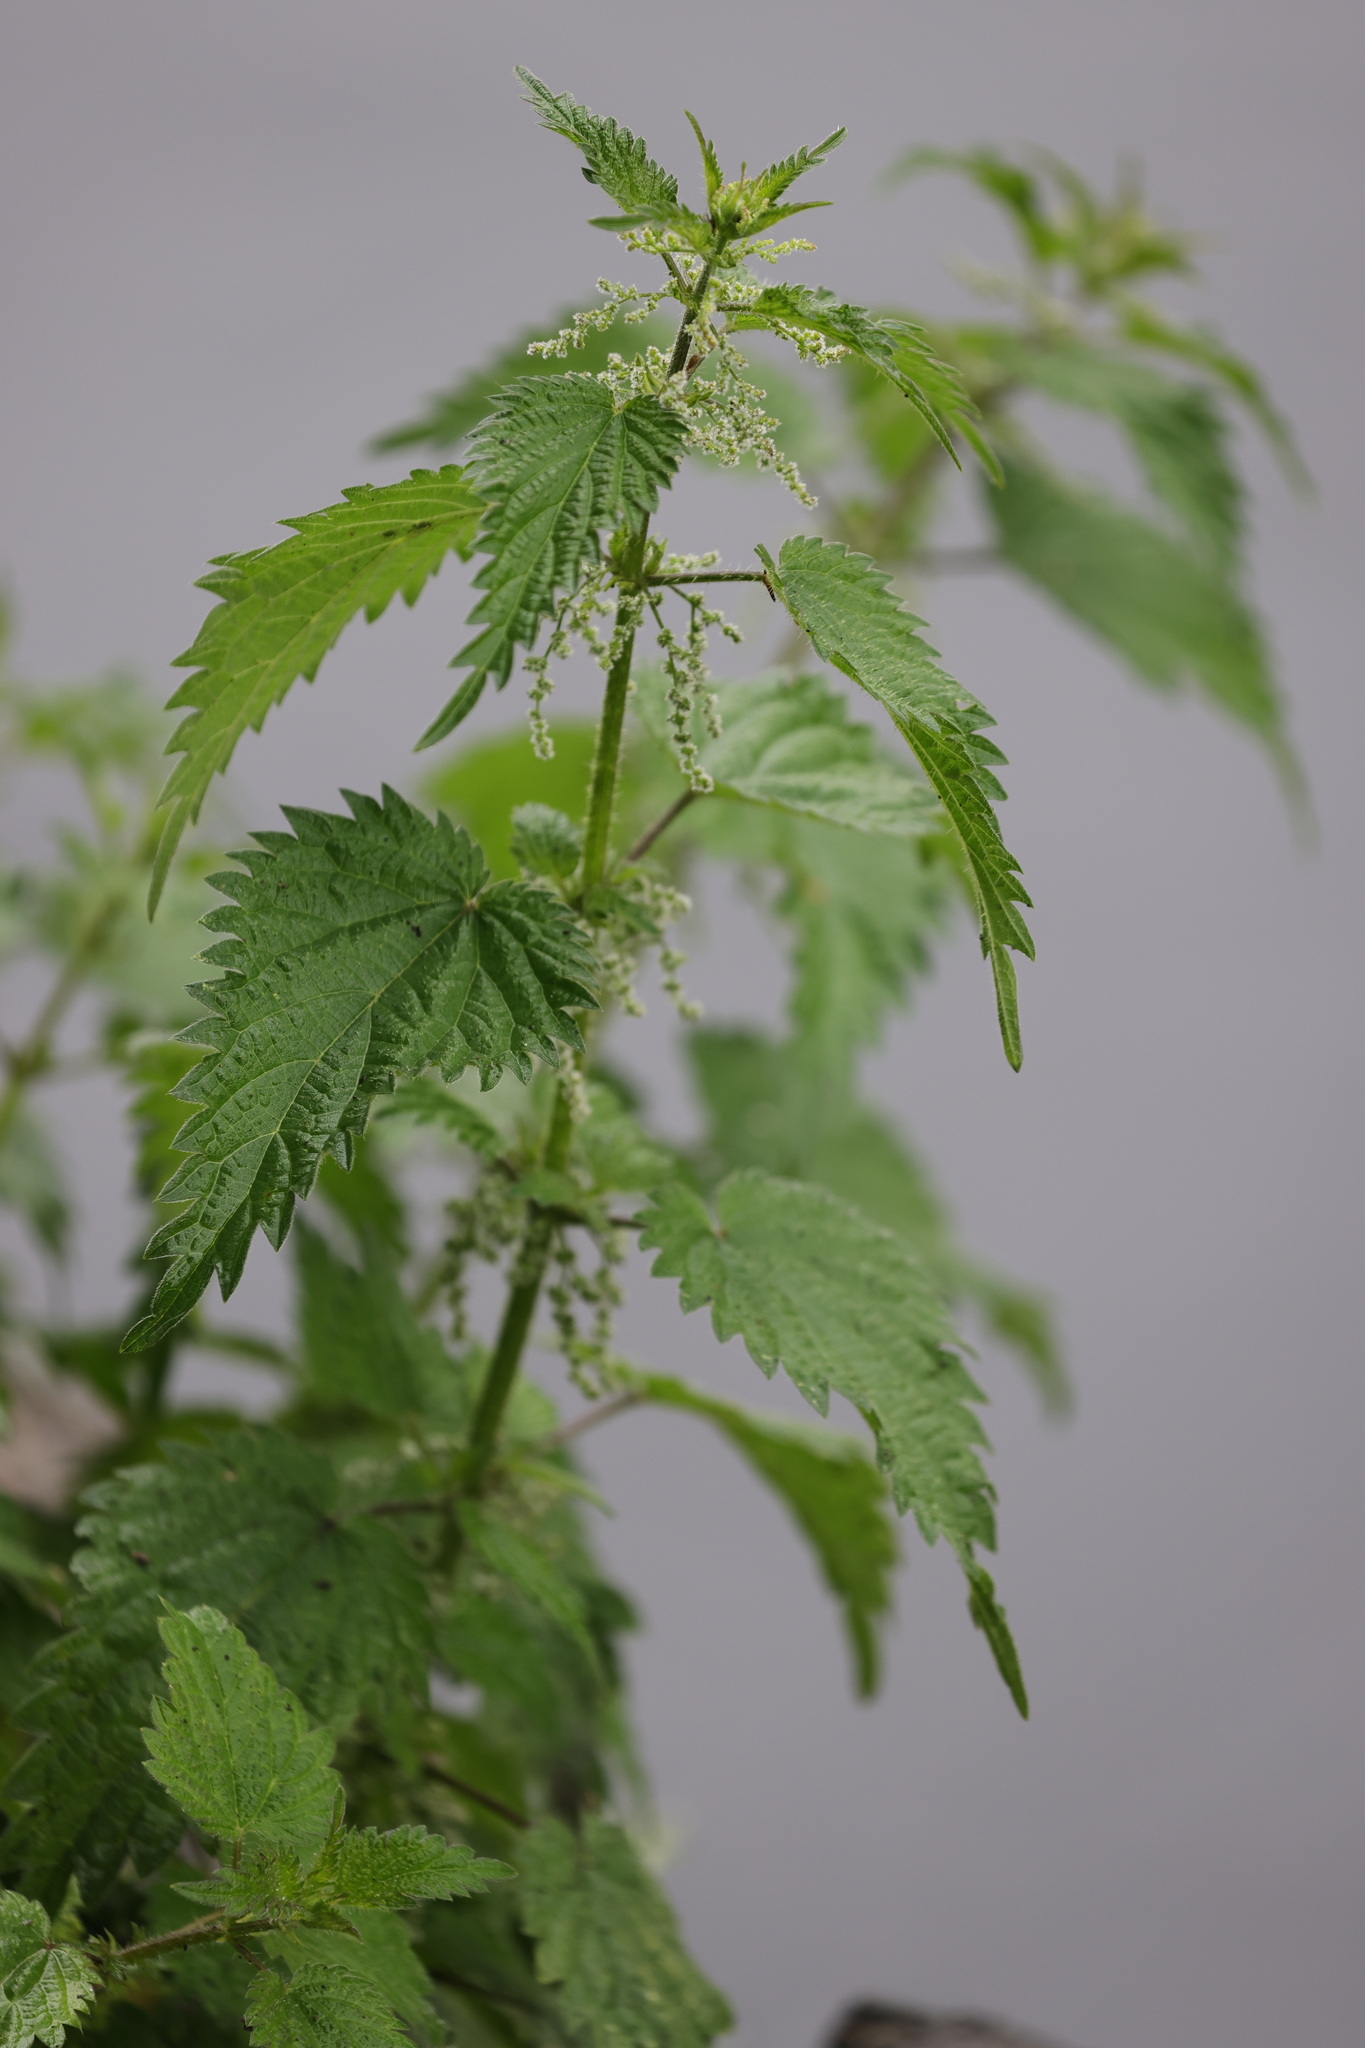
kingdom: Plantae
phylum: Tracheophyta
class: Magnoliopsida
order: Rosales
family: Urticaceae
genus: Urtica
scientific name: Urtica dioica
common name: Common nettle
